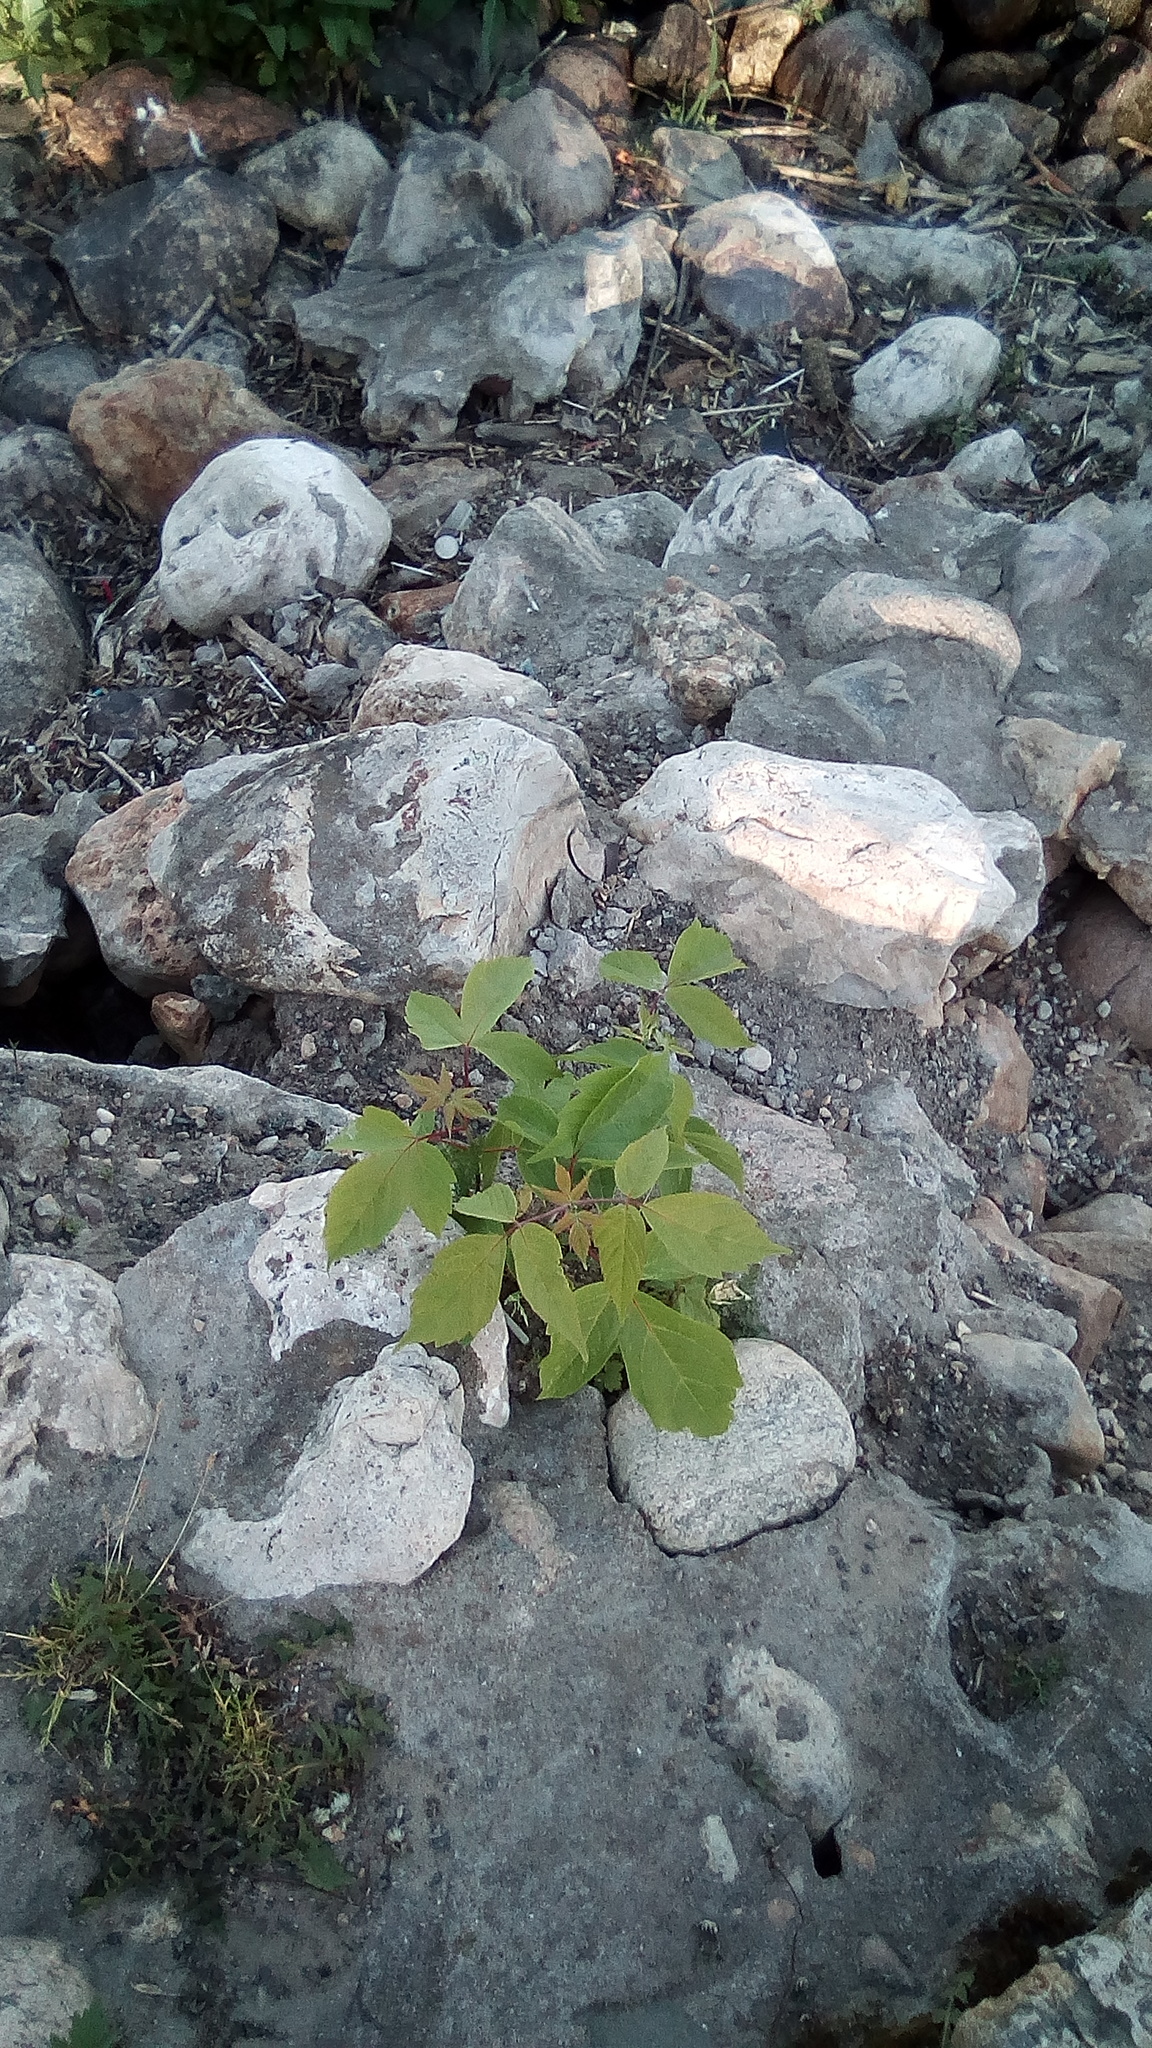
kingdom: Plantae
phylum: Tracheophyta
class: Magnoliopsida
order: Sapindales
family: Sapindaceae
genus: Acer
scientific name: Acer negundo
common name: Ashleaf maple
